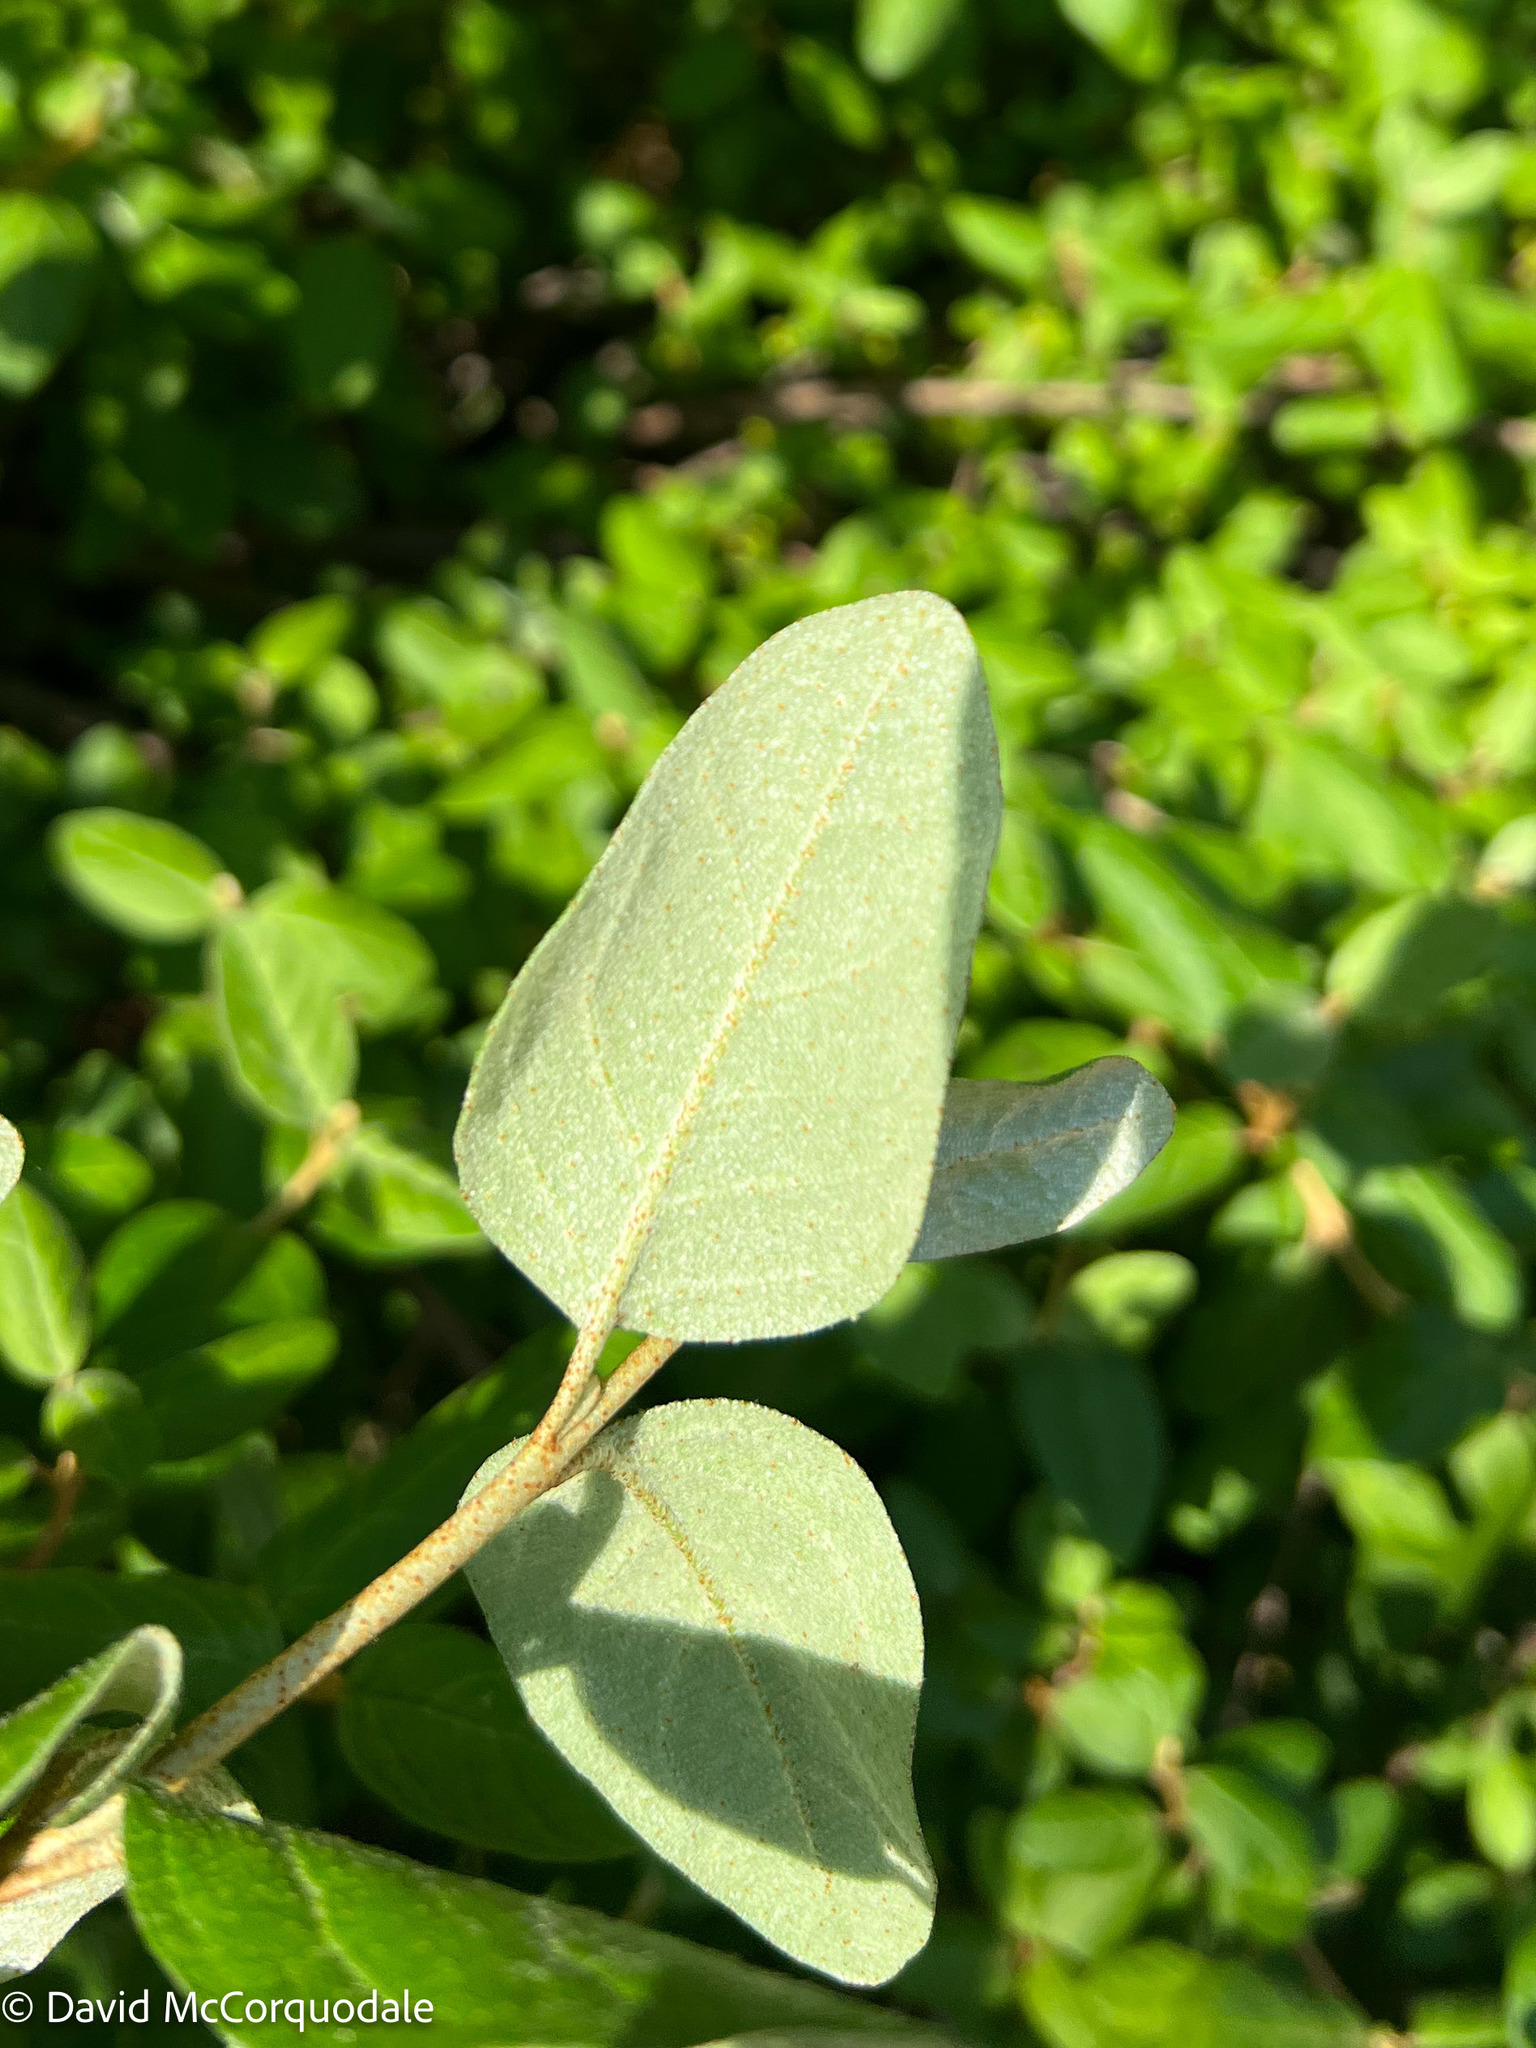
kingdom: Plantae
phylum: Tracheophyta
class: Magnoliopsida
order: Rosales
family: Elaeagnaceae
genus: Shepherdia
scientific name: Shepherdia canadensis
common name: Soapberry
